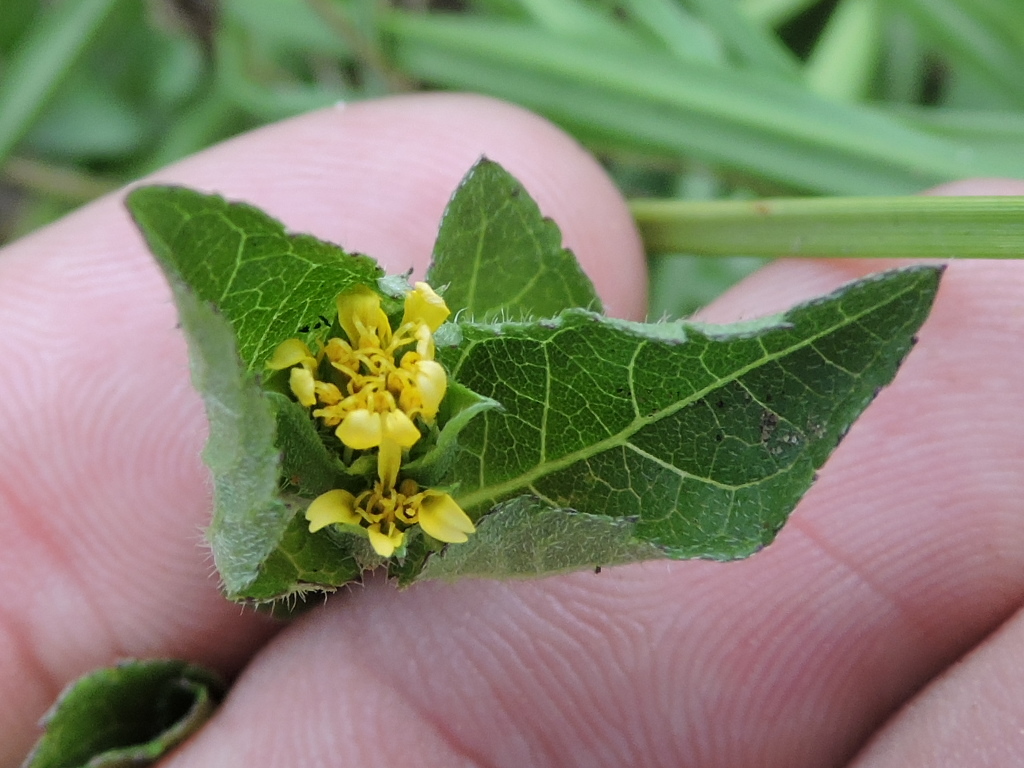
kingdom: Plantae
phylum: Tracheophyta
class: Magnoliopsida
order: Asterales
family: Asteraceae
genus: Calyptocarpus
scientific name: Calyptocarpus vialis
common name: Straggler daisy
